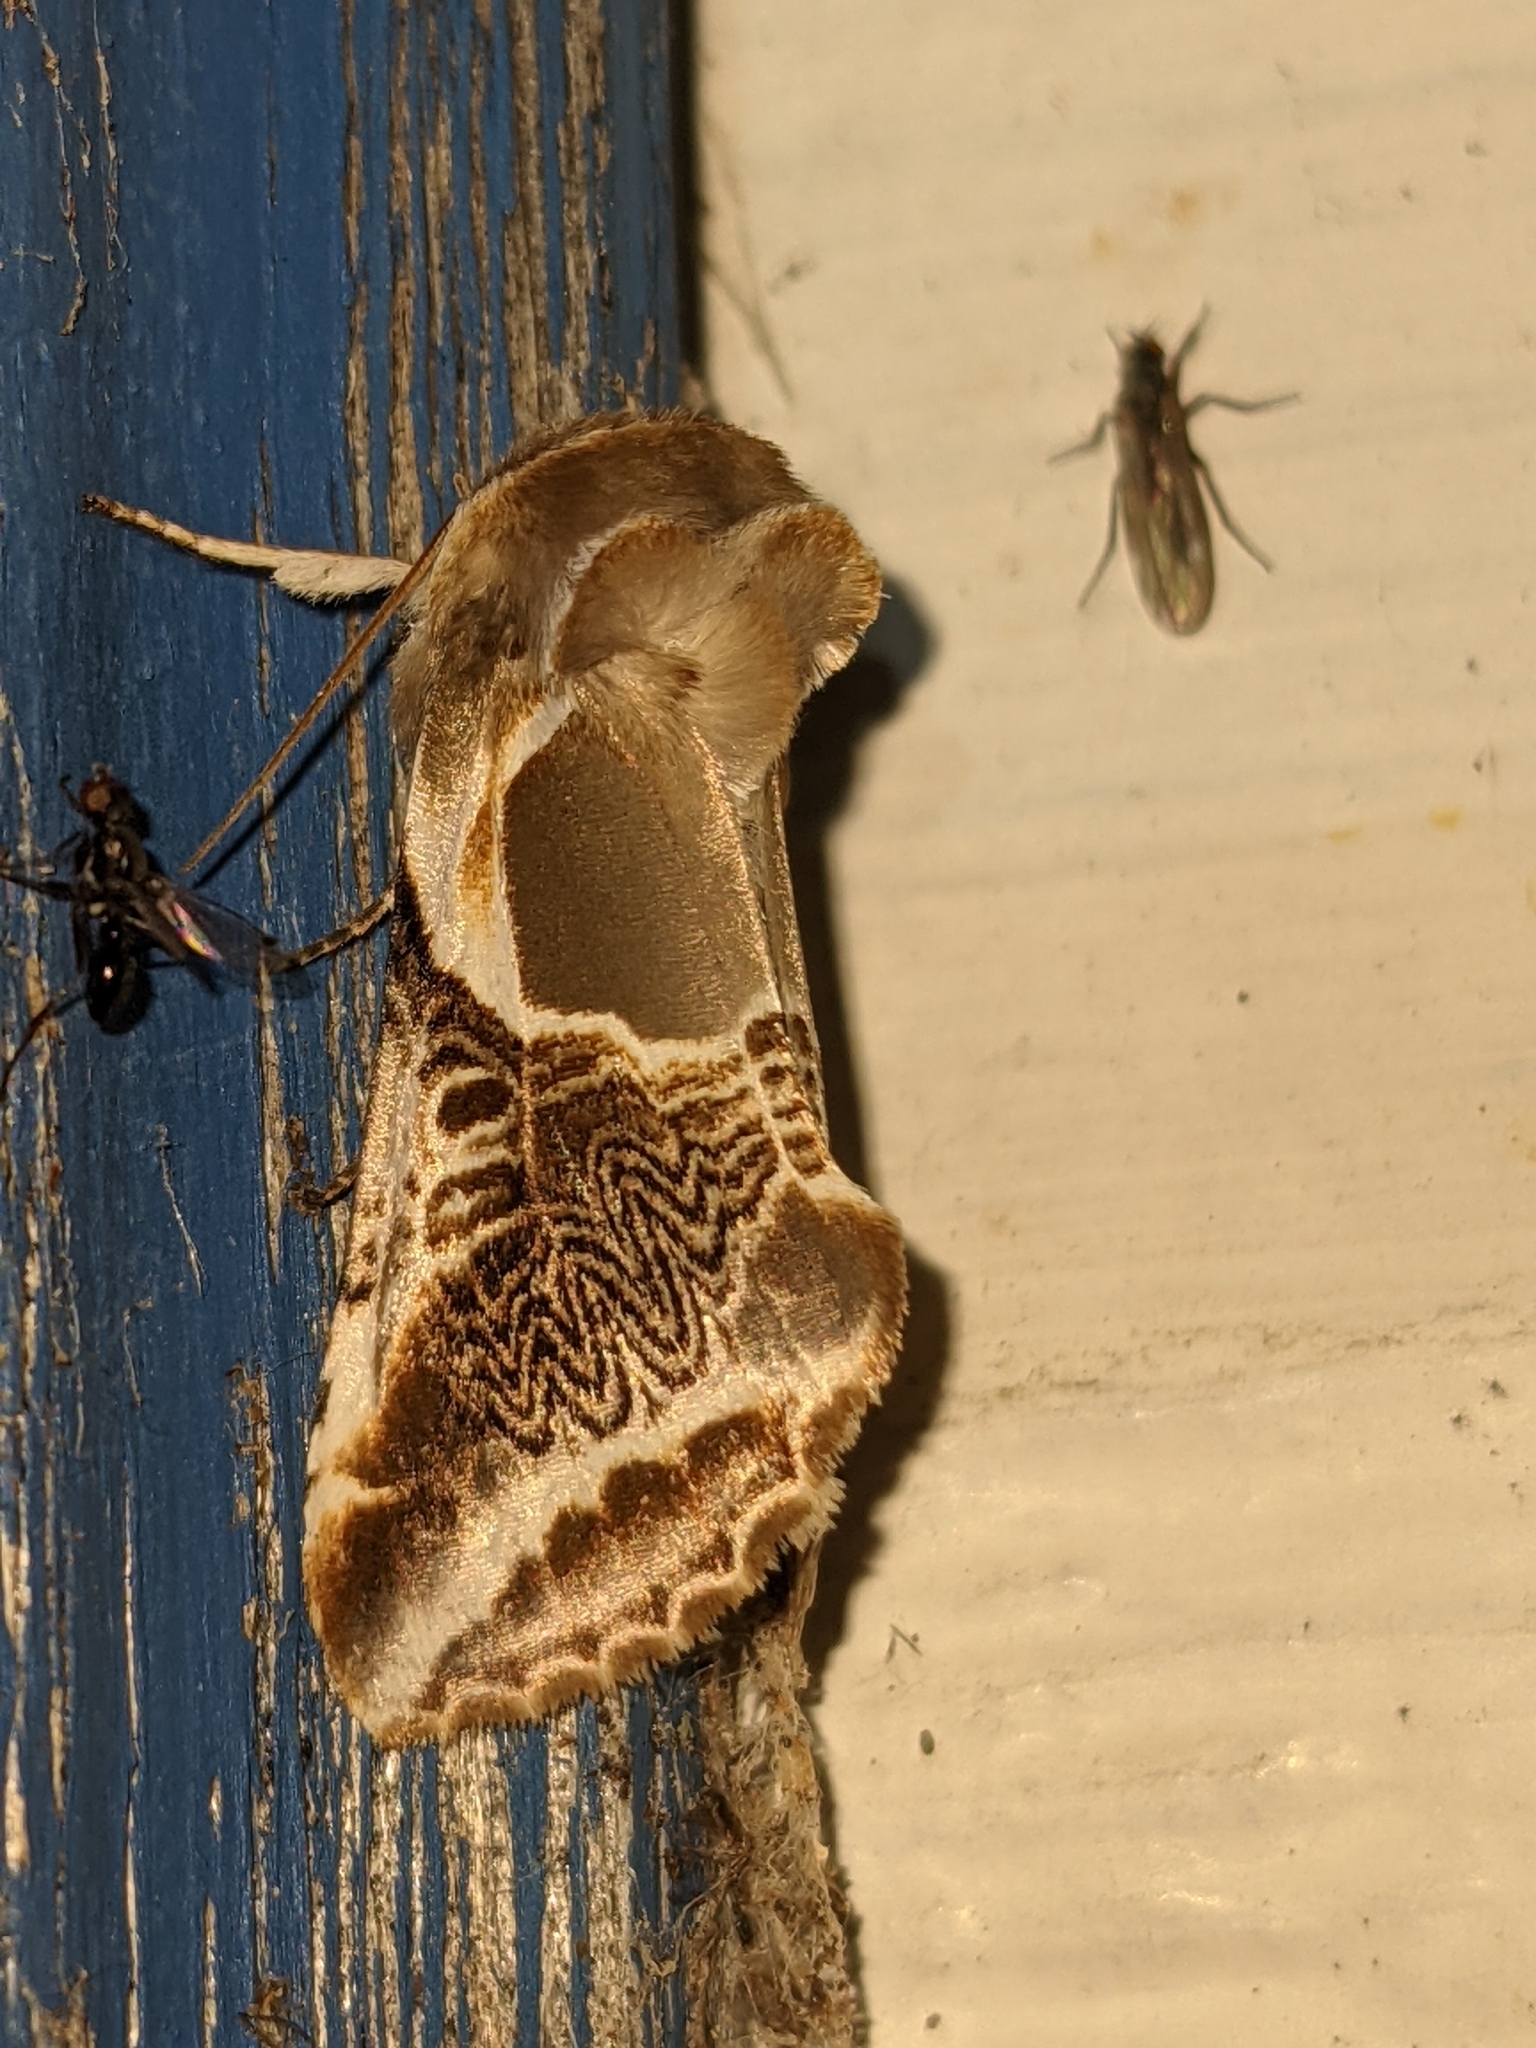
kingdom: Animalia
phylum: Arthropoda
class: Insecta
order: Lepidoptera
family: Drepanidae
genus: Habrosyne
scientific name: Habrosyne scripta
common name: Lettered habrosyne moth
